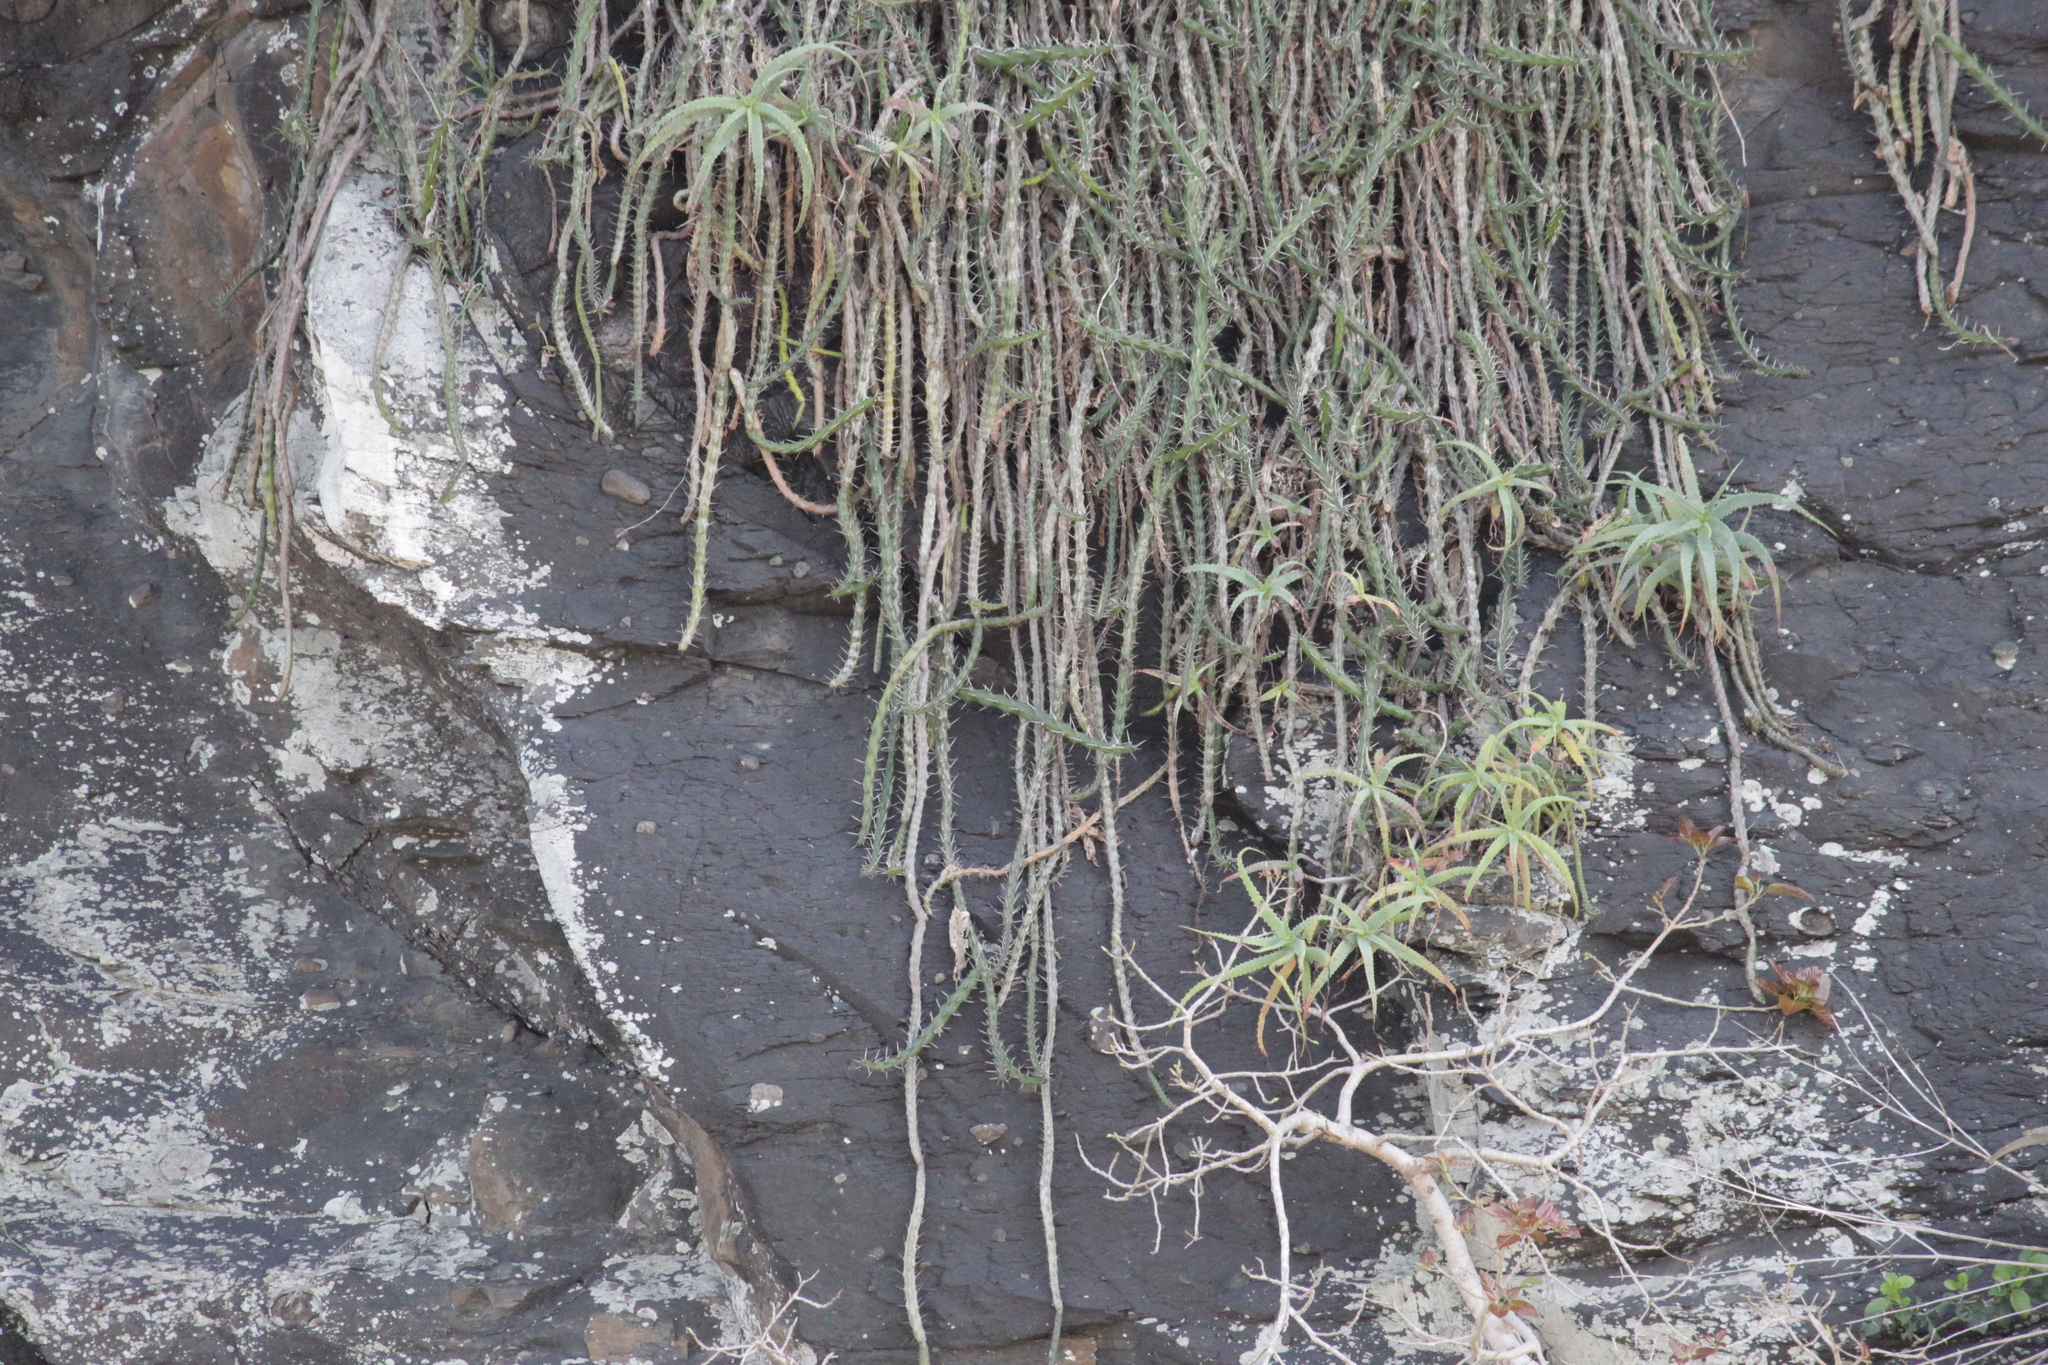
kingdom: Plantae
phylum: Tracheophyta
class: Magnoliopsida
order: Caryophyllales
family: Cactaceae
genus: Pereskia
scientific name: Pereskia aculeata
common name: Barbados gooseberry
